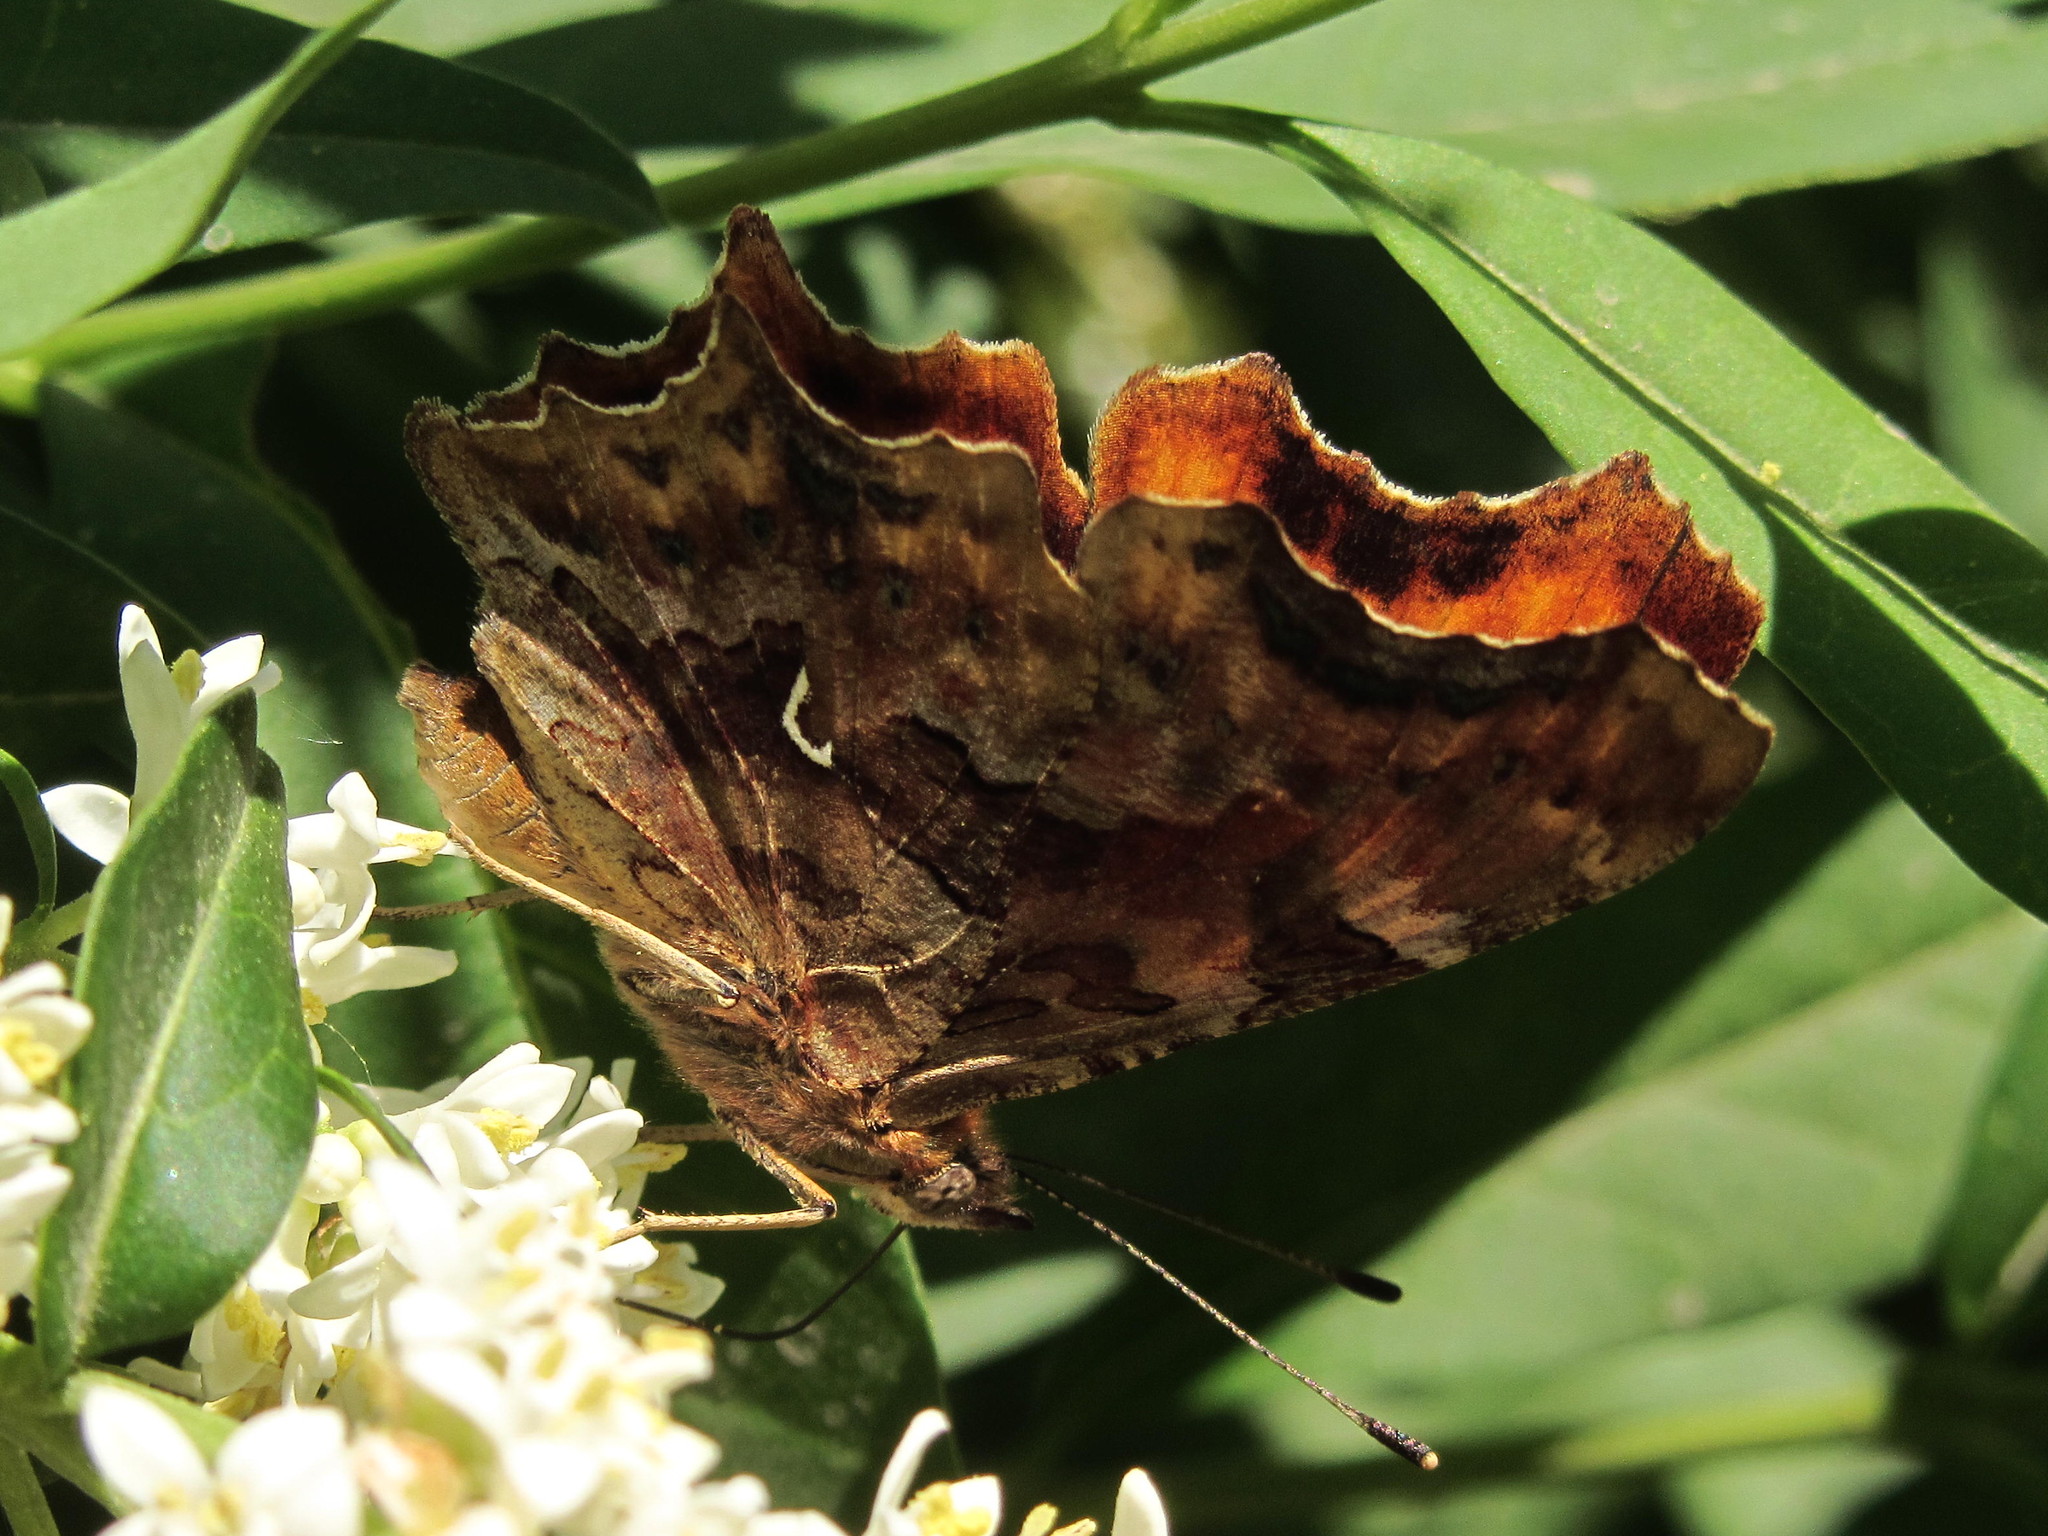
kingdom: Animalia
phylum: Arthropoda
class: Insecta
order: Lepidoptera
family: Nymphalidae
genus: Polygonia
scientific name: Polygonia c-album
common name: Comma
